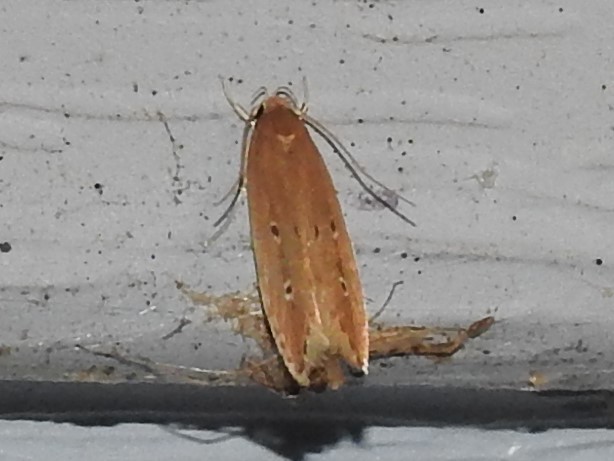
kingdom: Animalia
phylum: Arthropoda
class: Insecta
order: Lepidoptera
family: Cosmopterigidae
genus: Limnaecia
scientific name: Limnaecia phragmitella
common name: Bulrush cosmet
